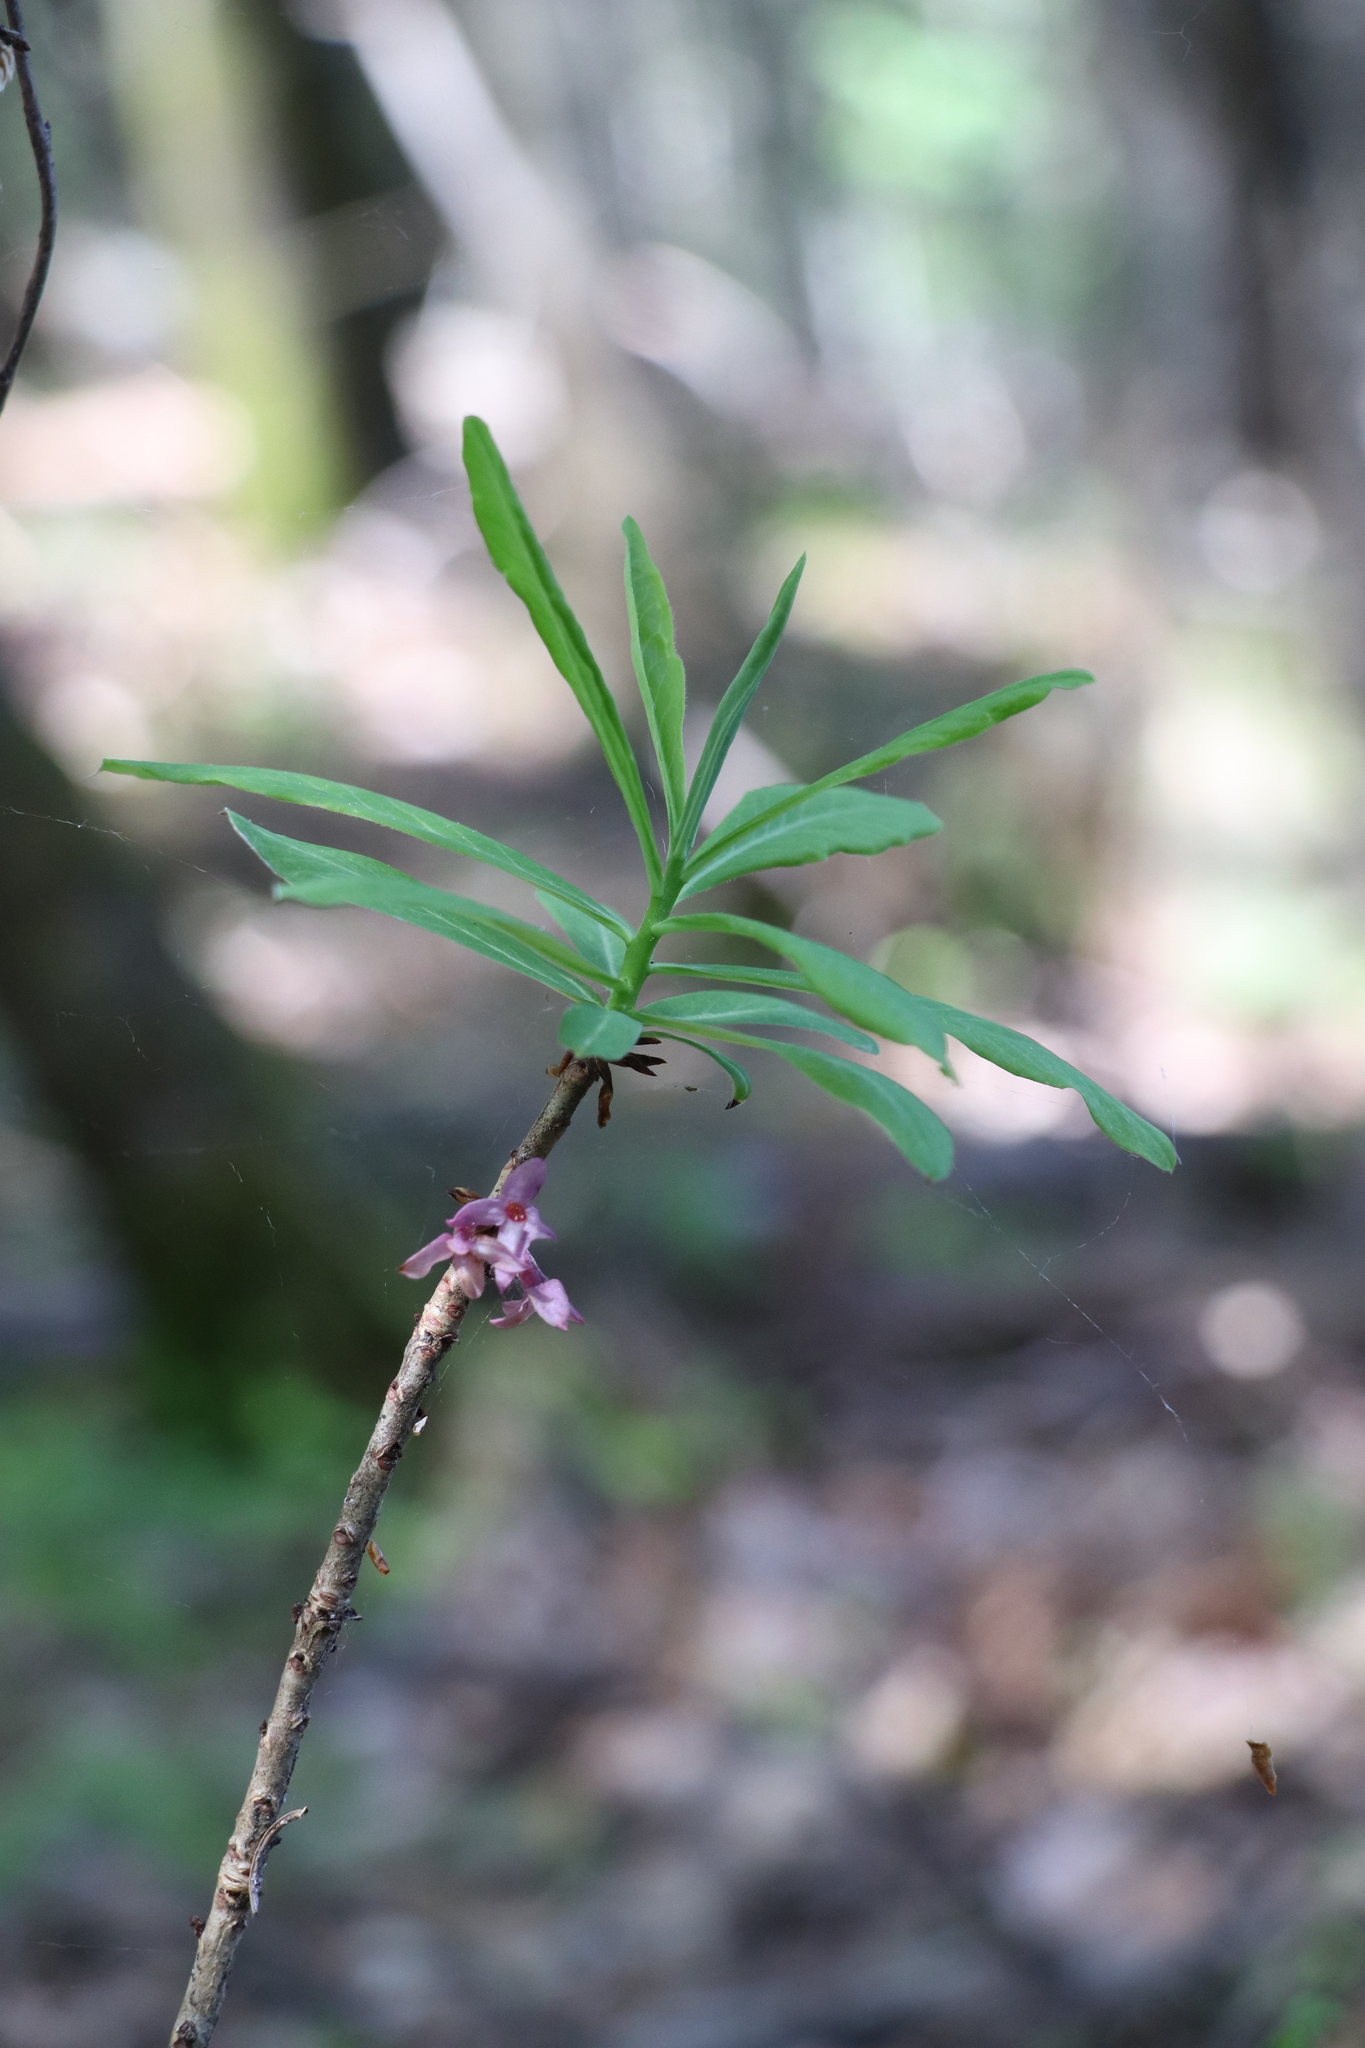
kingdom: Plantae
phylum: Tracheophyta
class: Magnoliopsida
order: Malvales
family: Thymelaeaceae
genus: Daphne
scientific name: Daphne mezereum
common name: Mezereon
